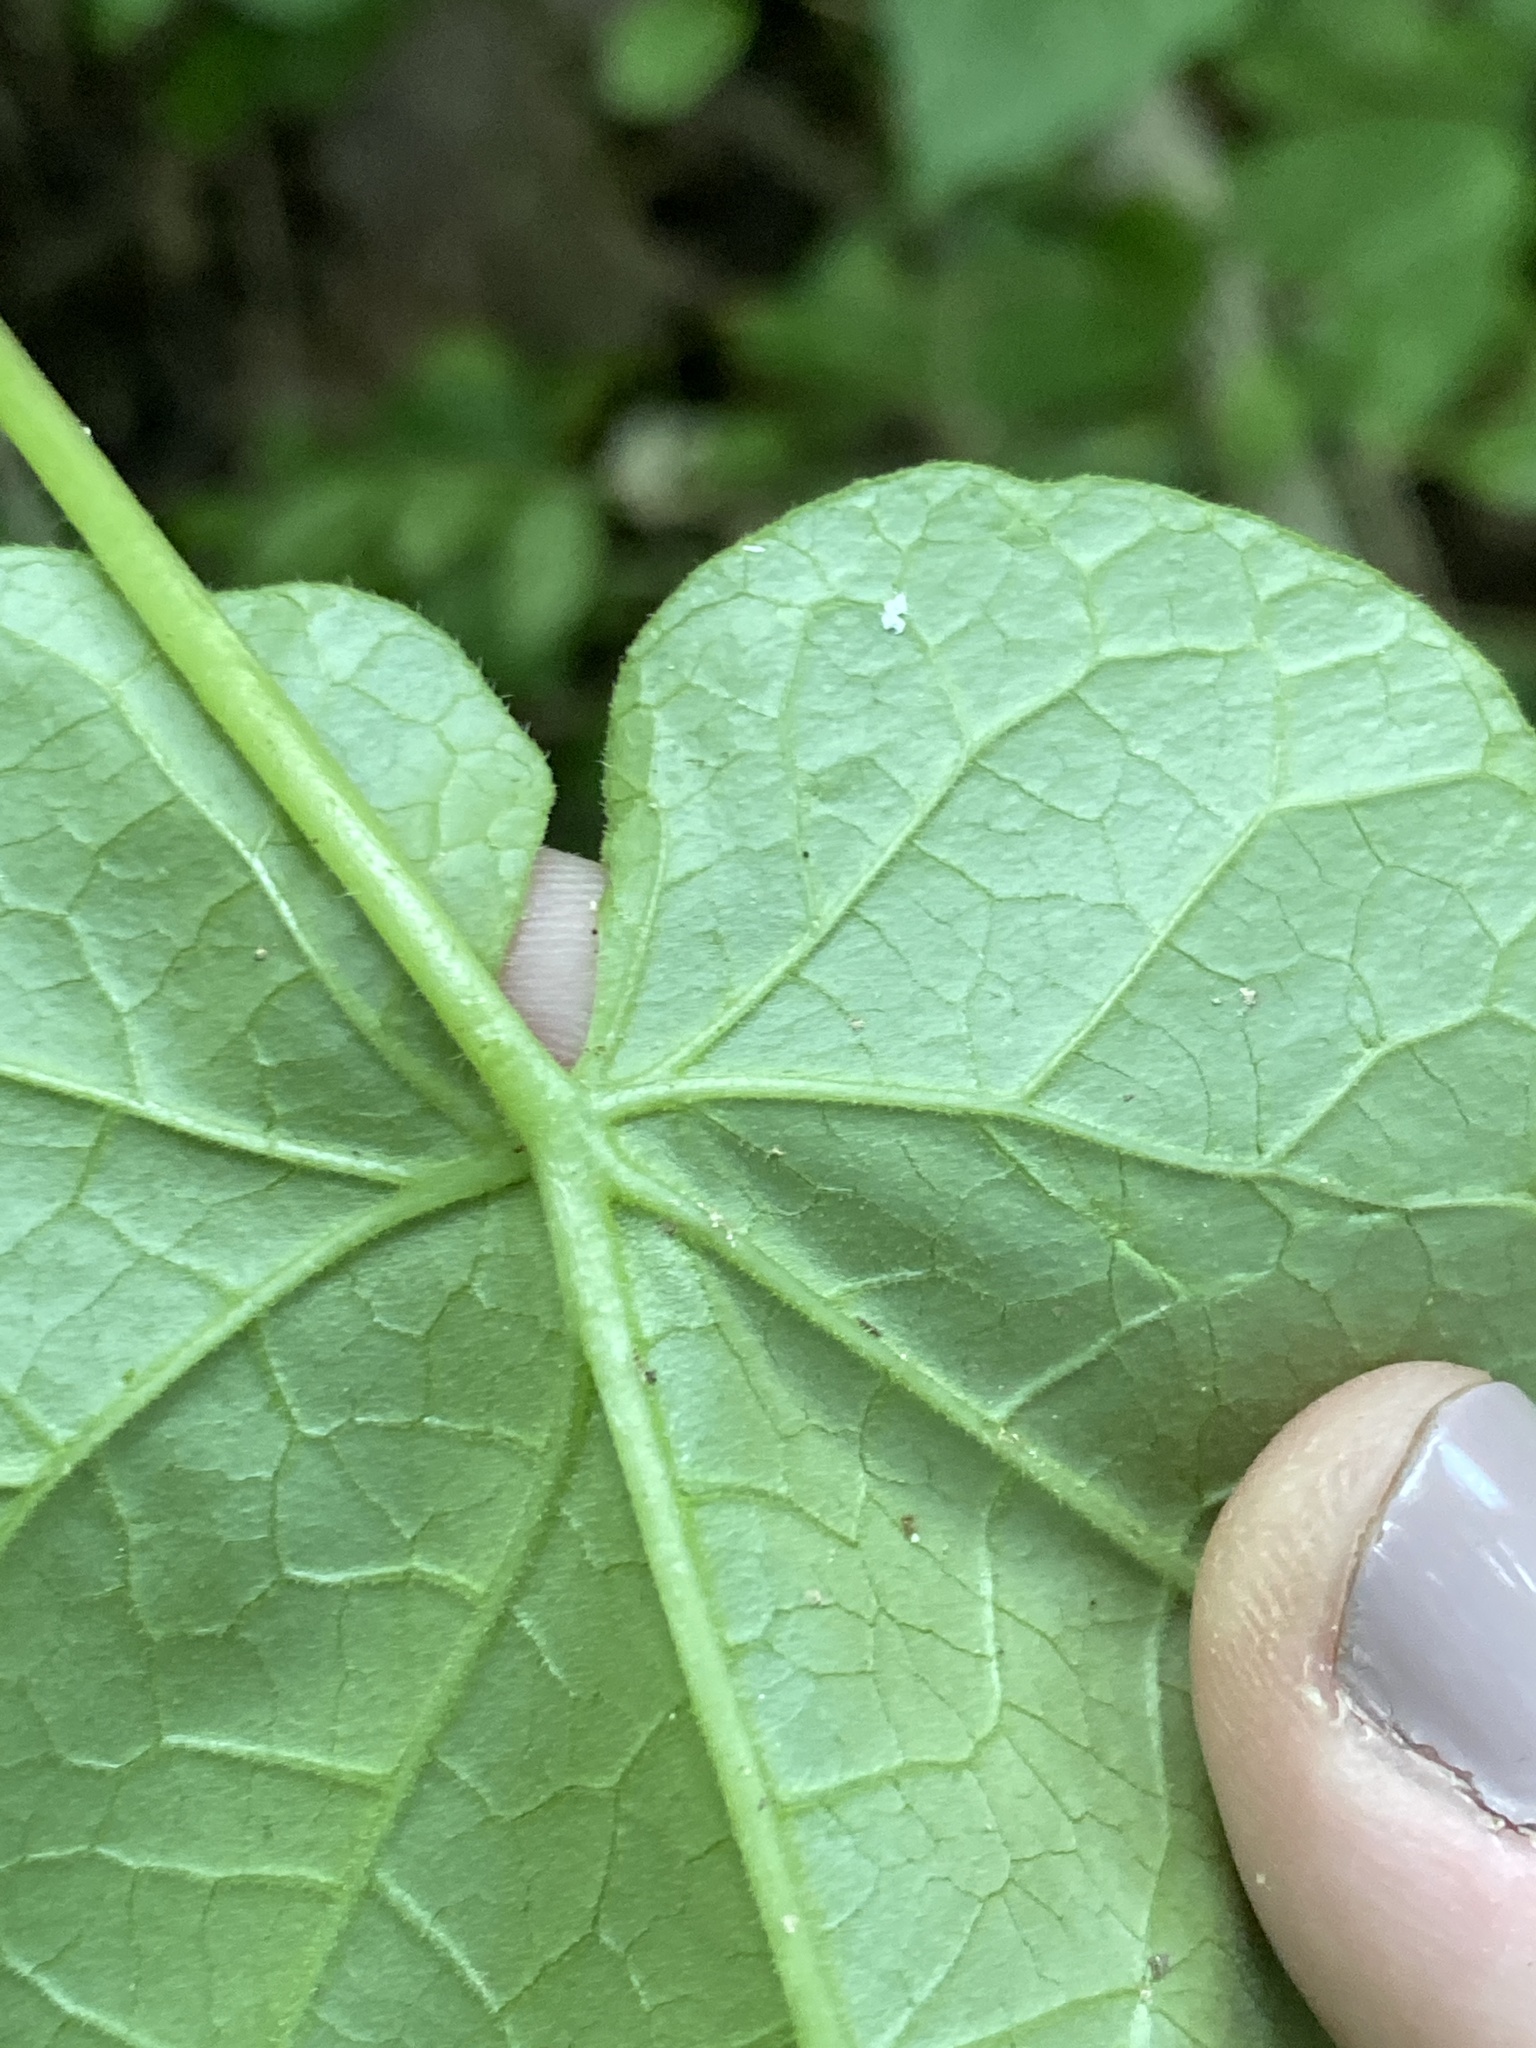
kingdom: Plantae
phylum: Tracheophyta
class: Magnoliopsida
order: Gentianales
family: Apocynaceae
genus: Gonolobus
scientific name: Gonolobus suberosus
